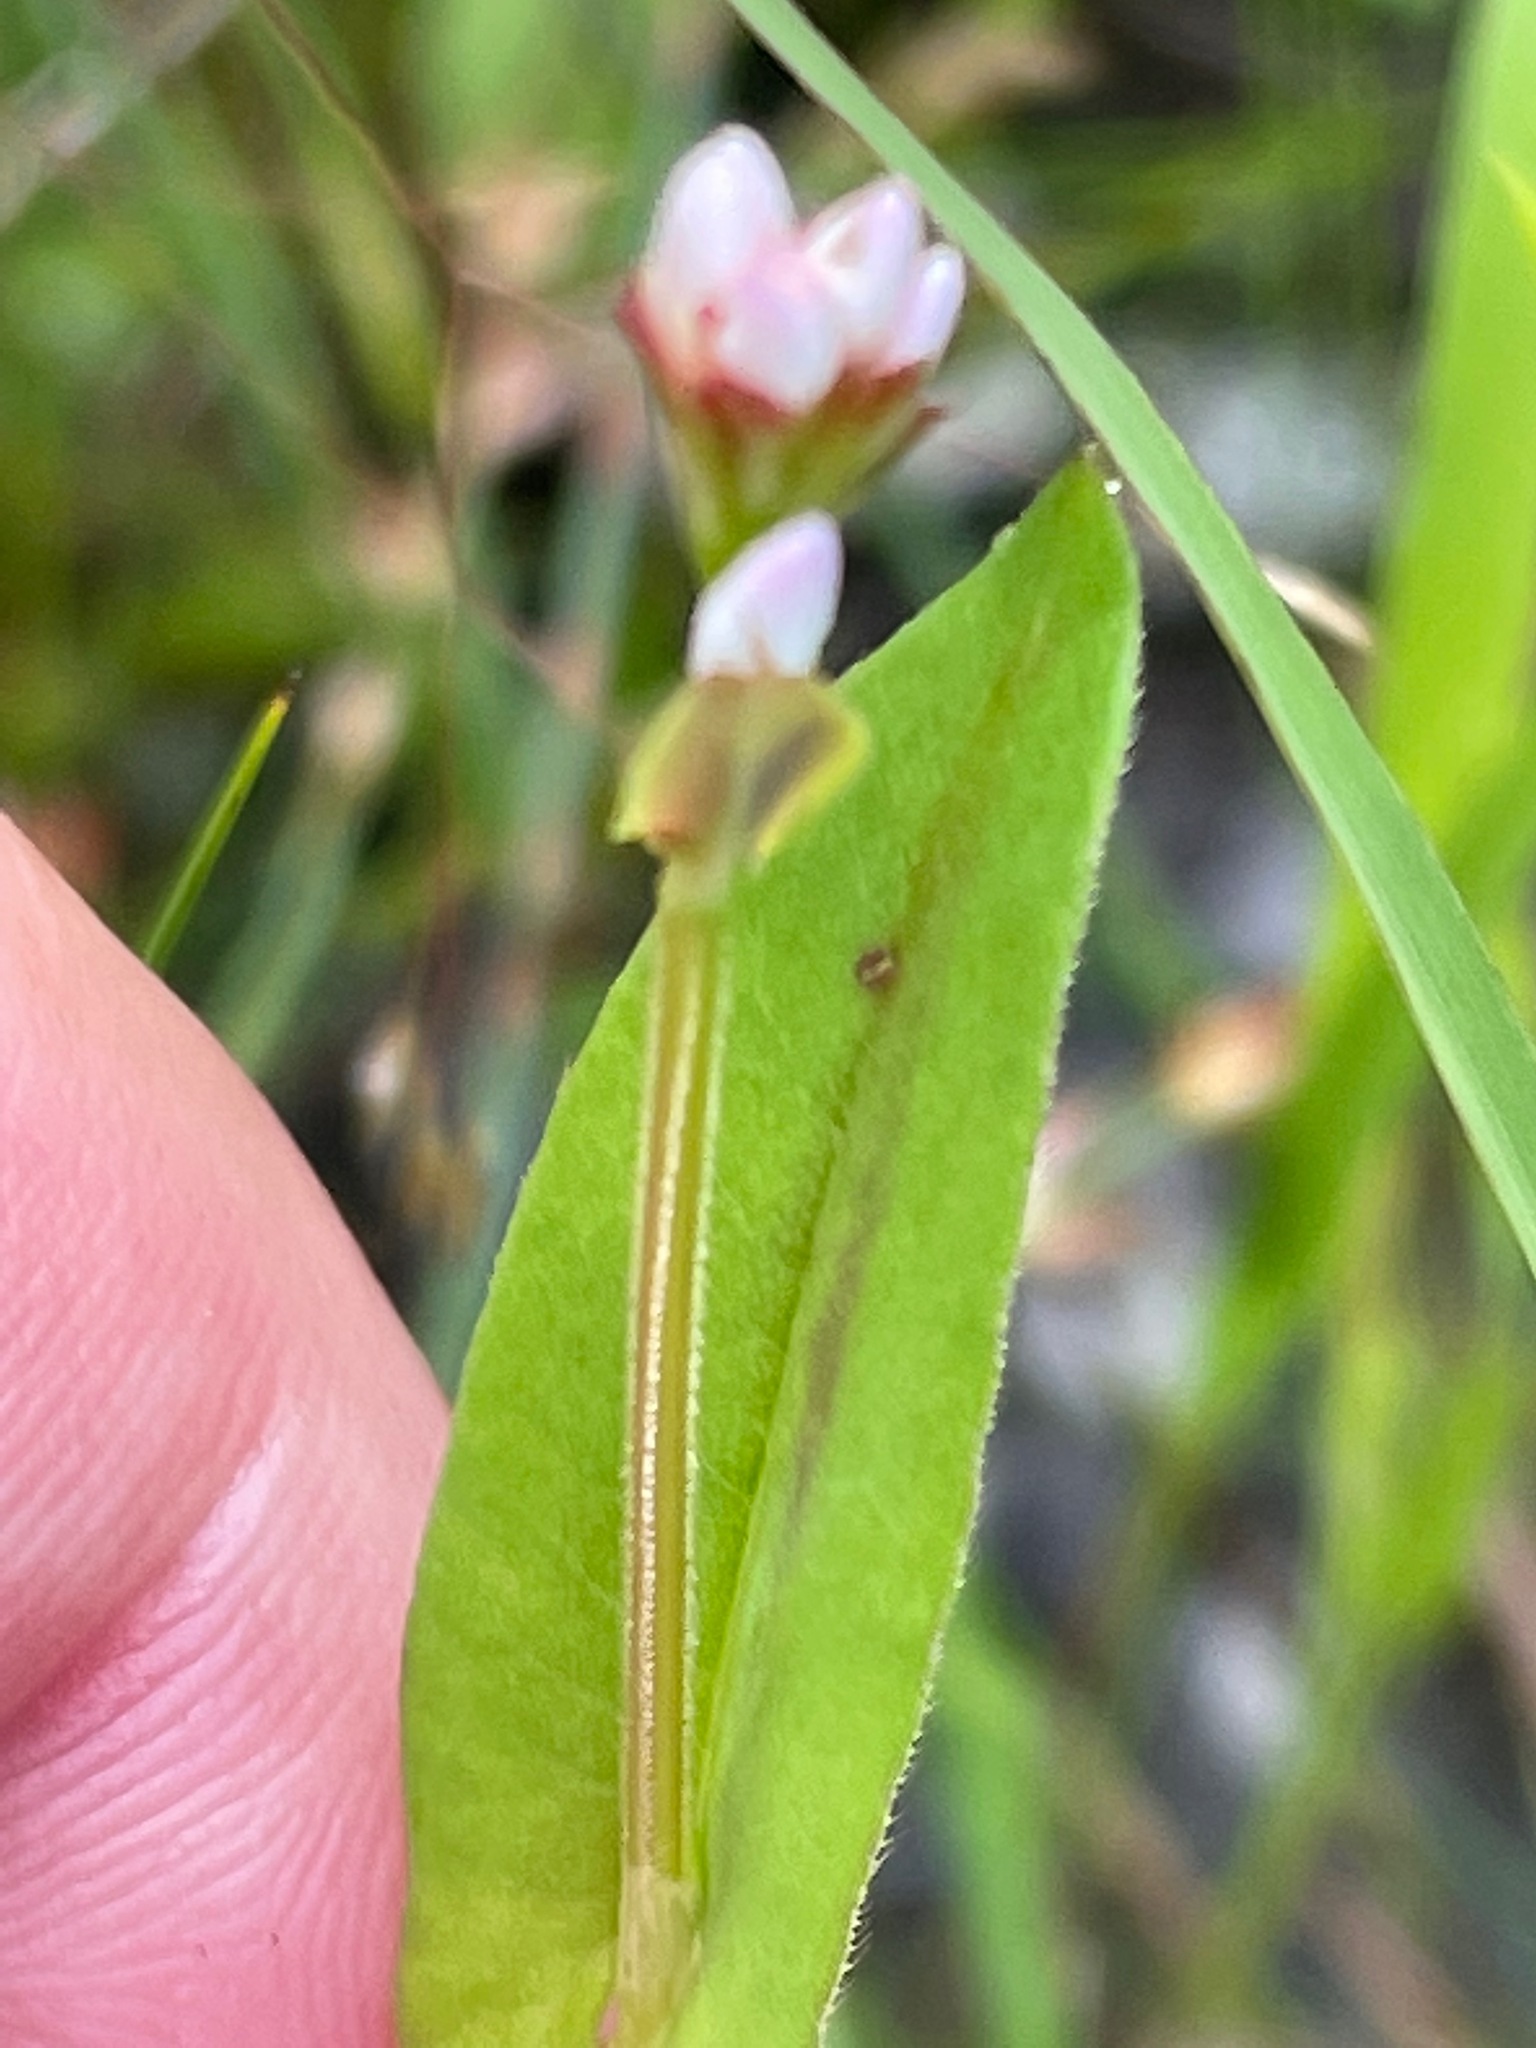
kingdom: Plantae
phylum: Tracheophyta
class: Magnoliopsida
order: Caryophyllales
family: Polygonaceae
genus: Persicaria
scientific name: Persicaria sagittata
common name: American tearthumb
